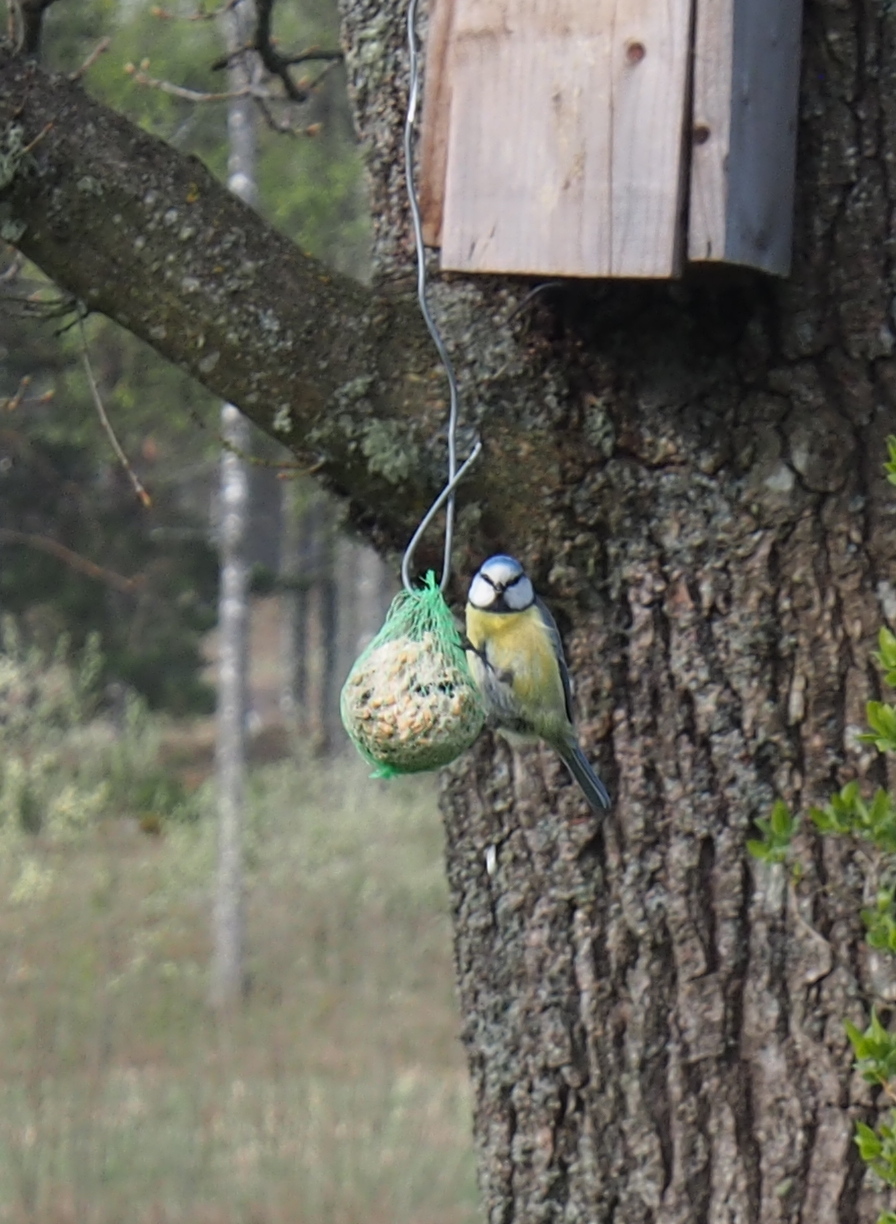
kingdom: Animalia
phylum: Chordata
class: Aves
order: Passeriformes
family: Paridae
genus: Cyanistes
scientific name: Cyanistes caeruleus
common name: Eurasian blue tit
